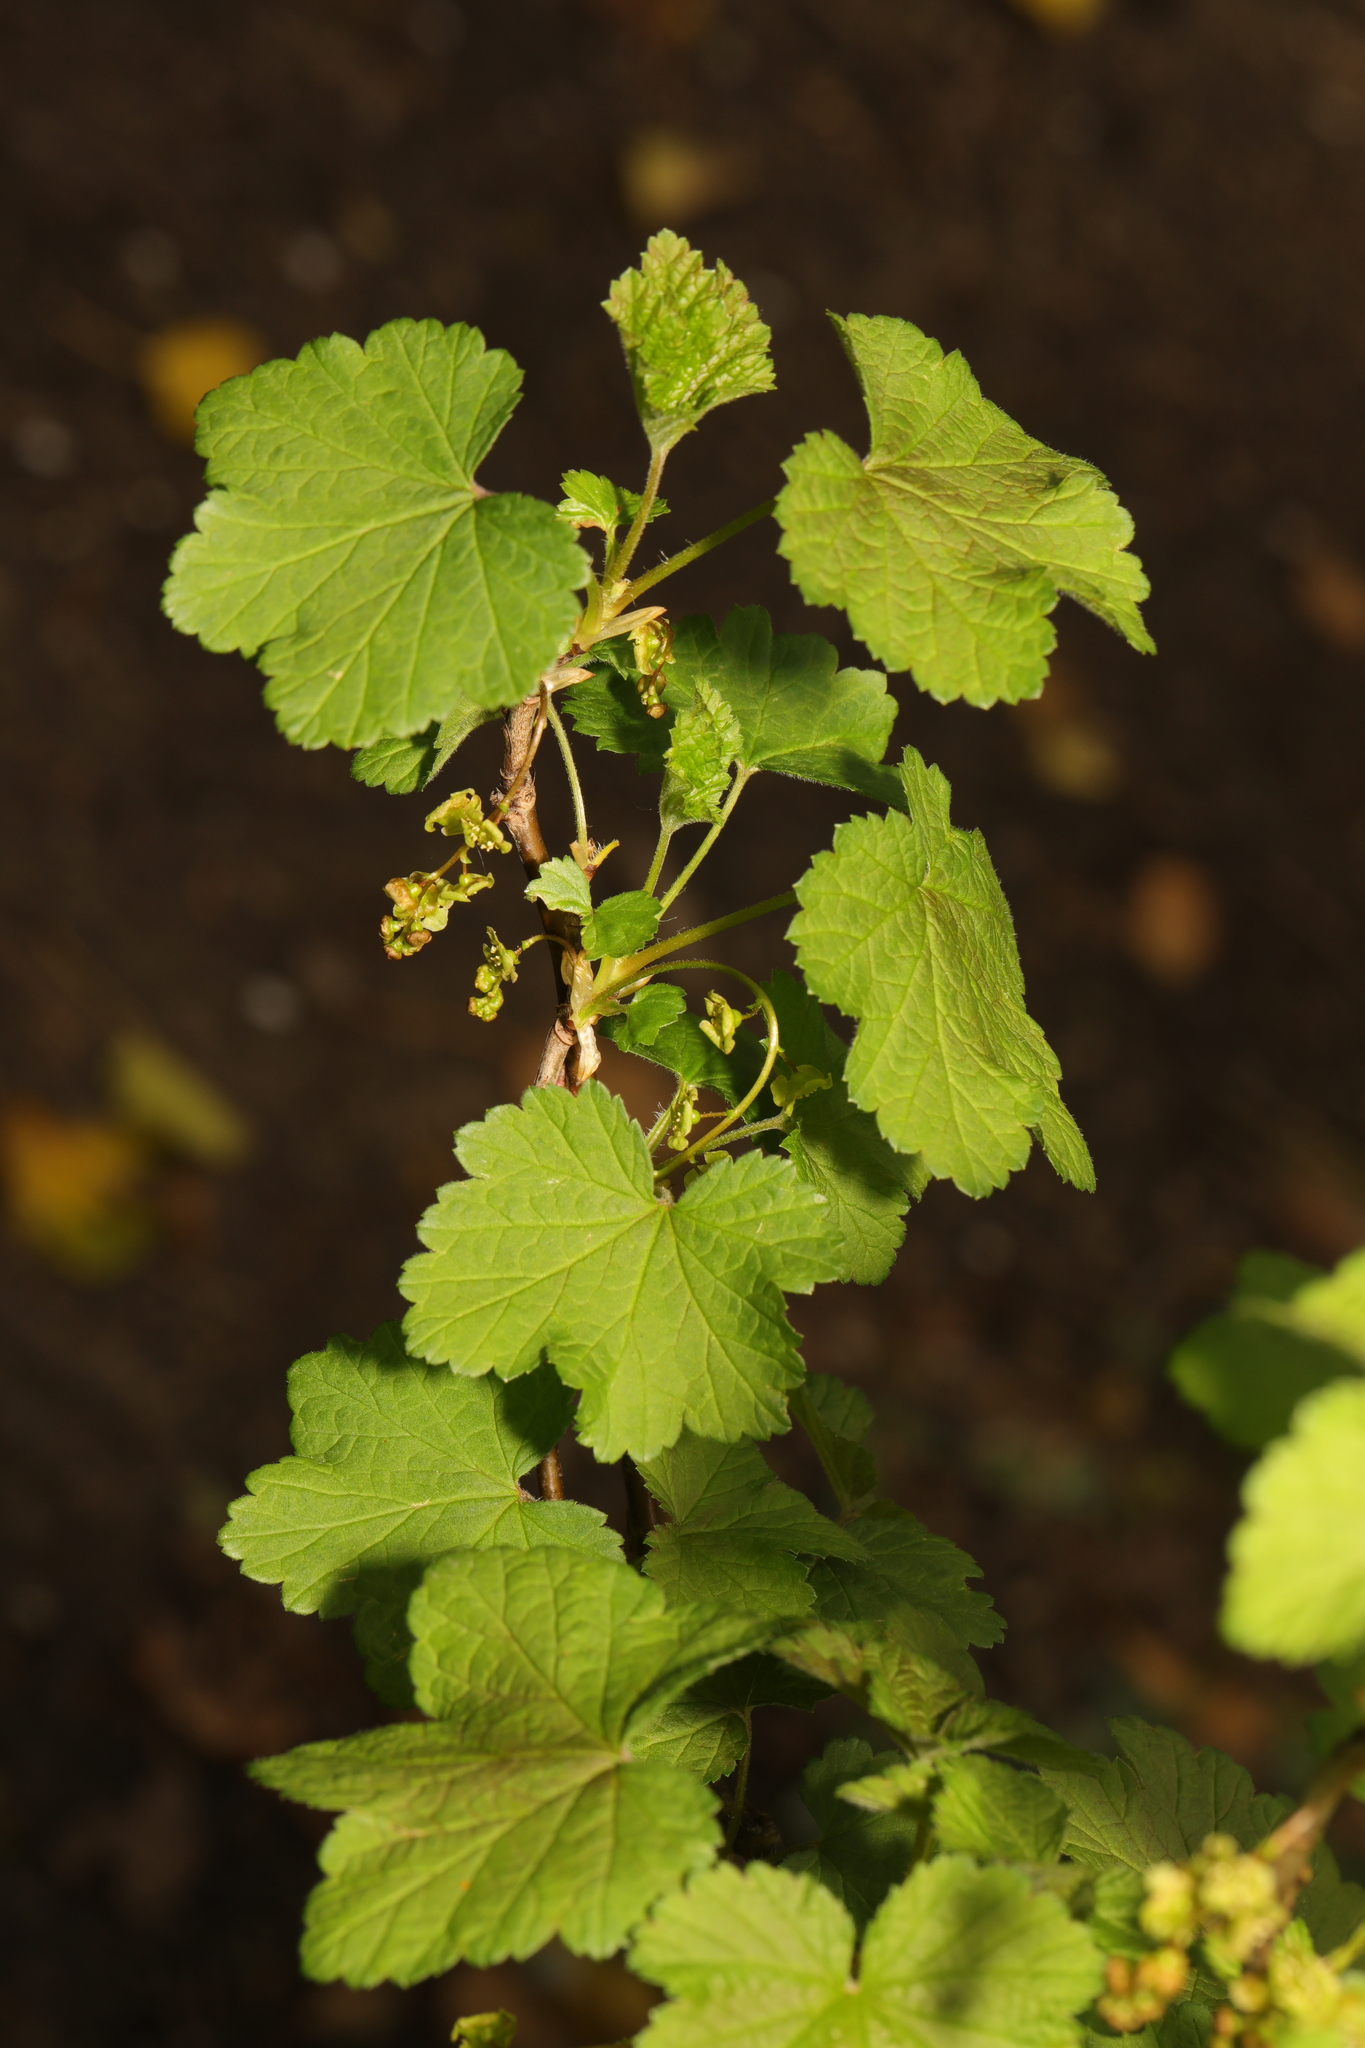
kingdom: Plantae
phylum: Tracheophyta
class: Magnoliopsida
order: Saxifragales
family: Grossulariaceae
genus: Ribes
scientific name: Ribes rubrum
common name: Red currant
